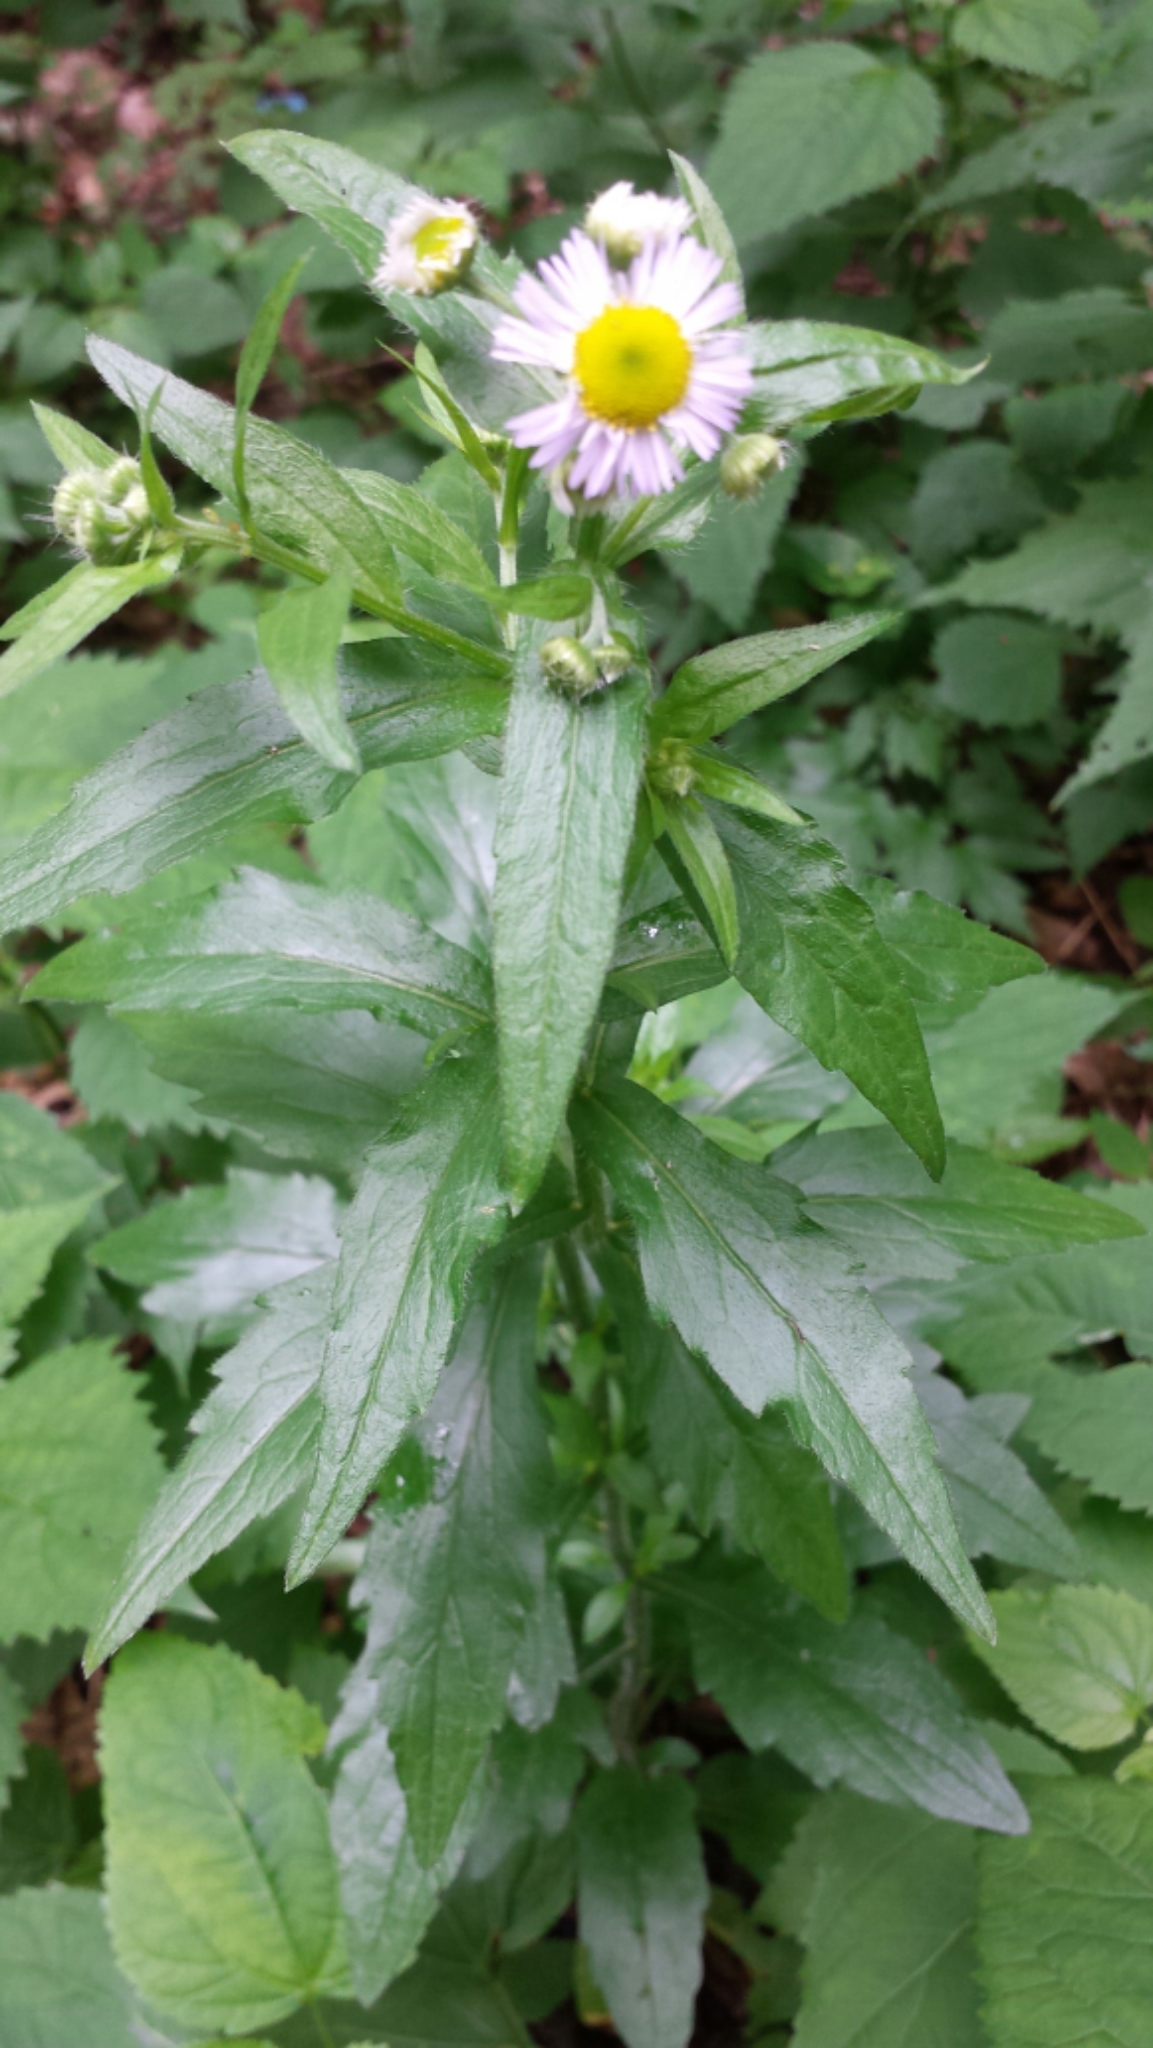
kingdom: Plantae
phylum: Tracheophyta
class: Magnoliopsida
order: Asterales
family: Asteraceae
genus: Erigeron
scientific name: Erigeron annuus
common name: Tall fleabane
